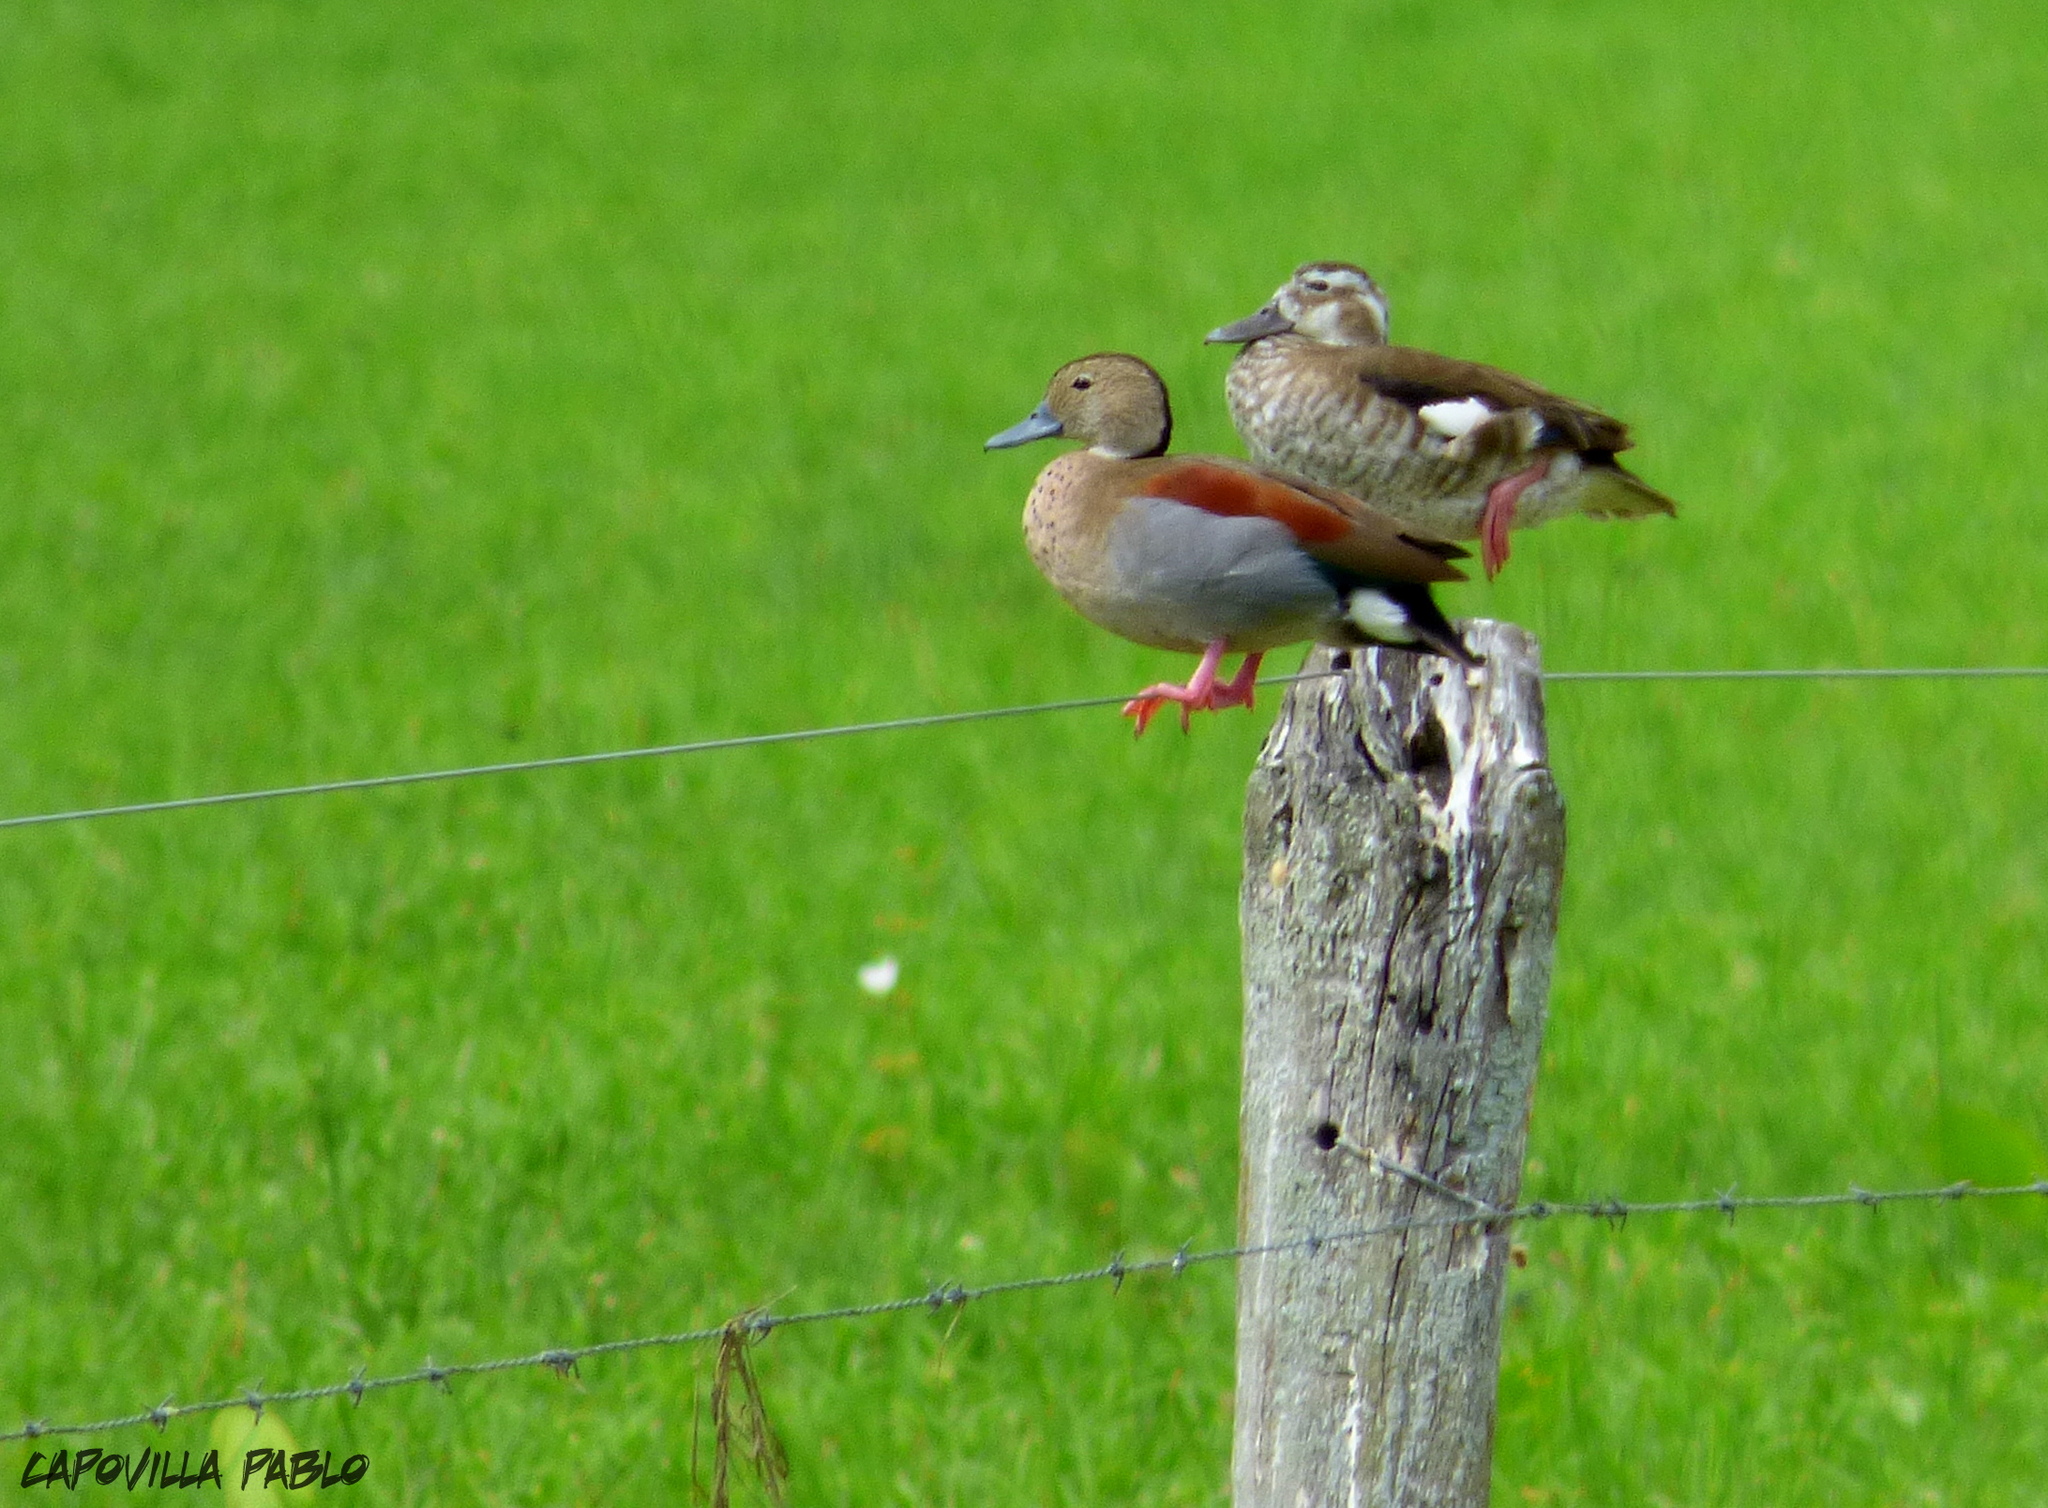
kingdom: Animalia
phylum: Chordata
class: Aves
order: Anseriformes
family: Anatidae
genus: Callonetta
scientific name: Callonetta leucophrys
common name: Ringed teal
